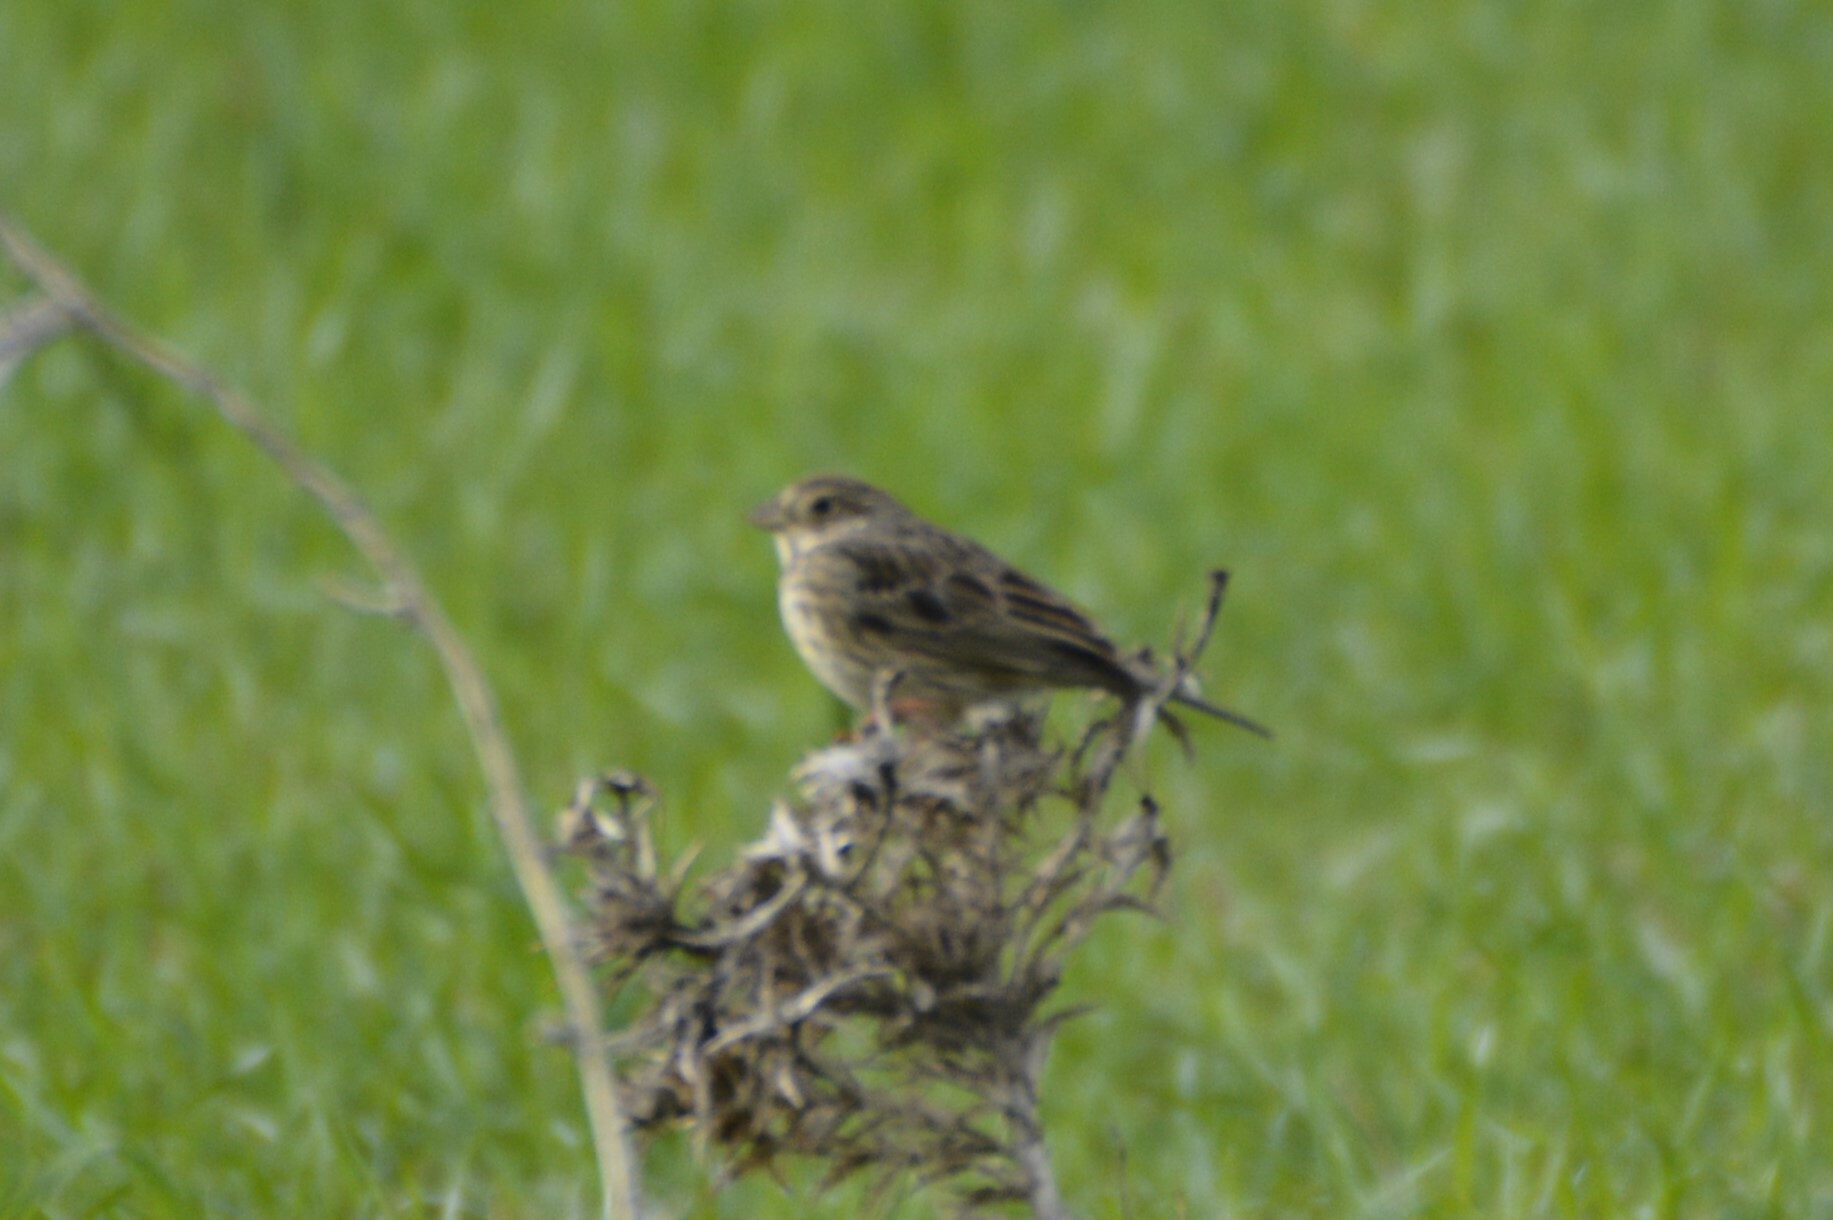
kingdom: Animalia
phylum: Chordata
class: Aves
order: Passeriformes
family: Emberizidae
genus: Emberiza
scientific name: Emberiza calandra
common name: Corn bunting
